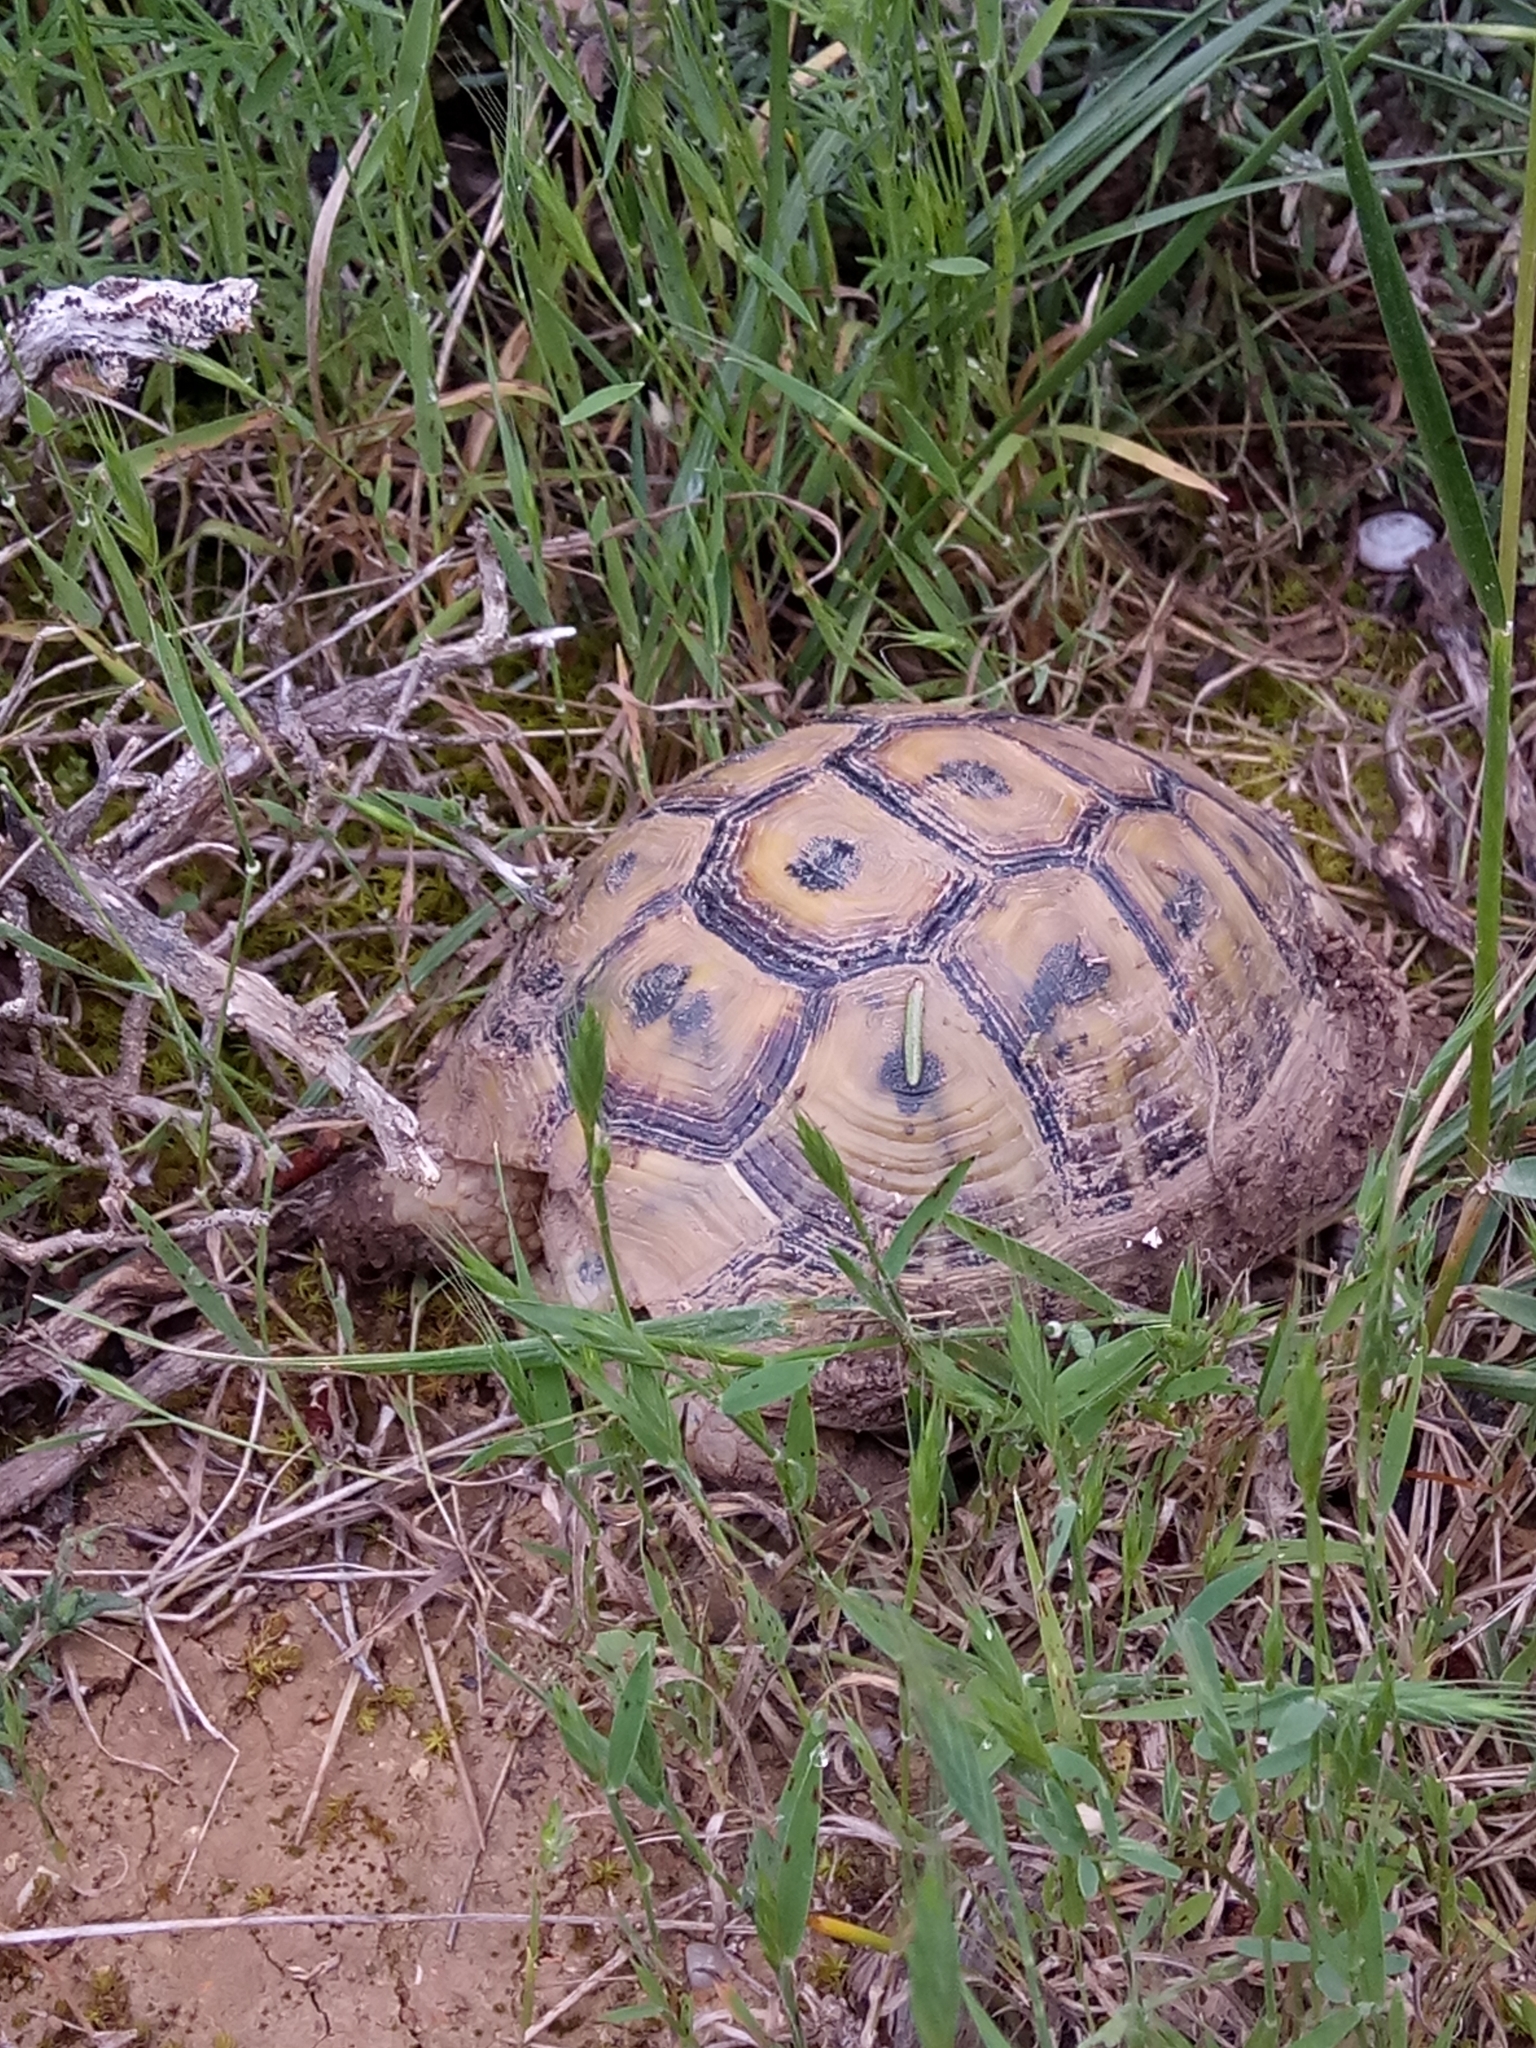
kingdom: Animalia
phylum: Chordata
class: Testudines
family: Testudinidae
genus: Testudo
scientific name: Testudo graeca
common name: Common tortoise
